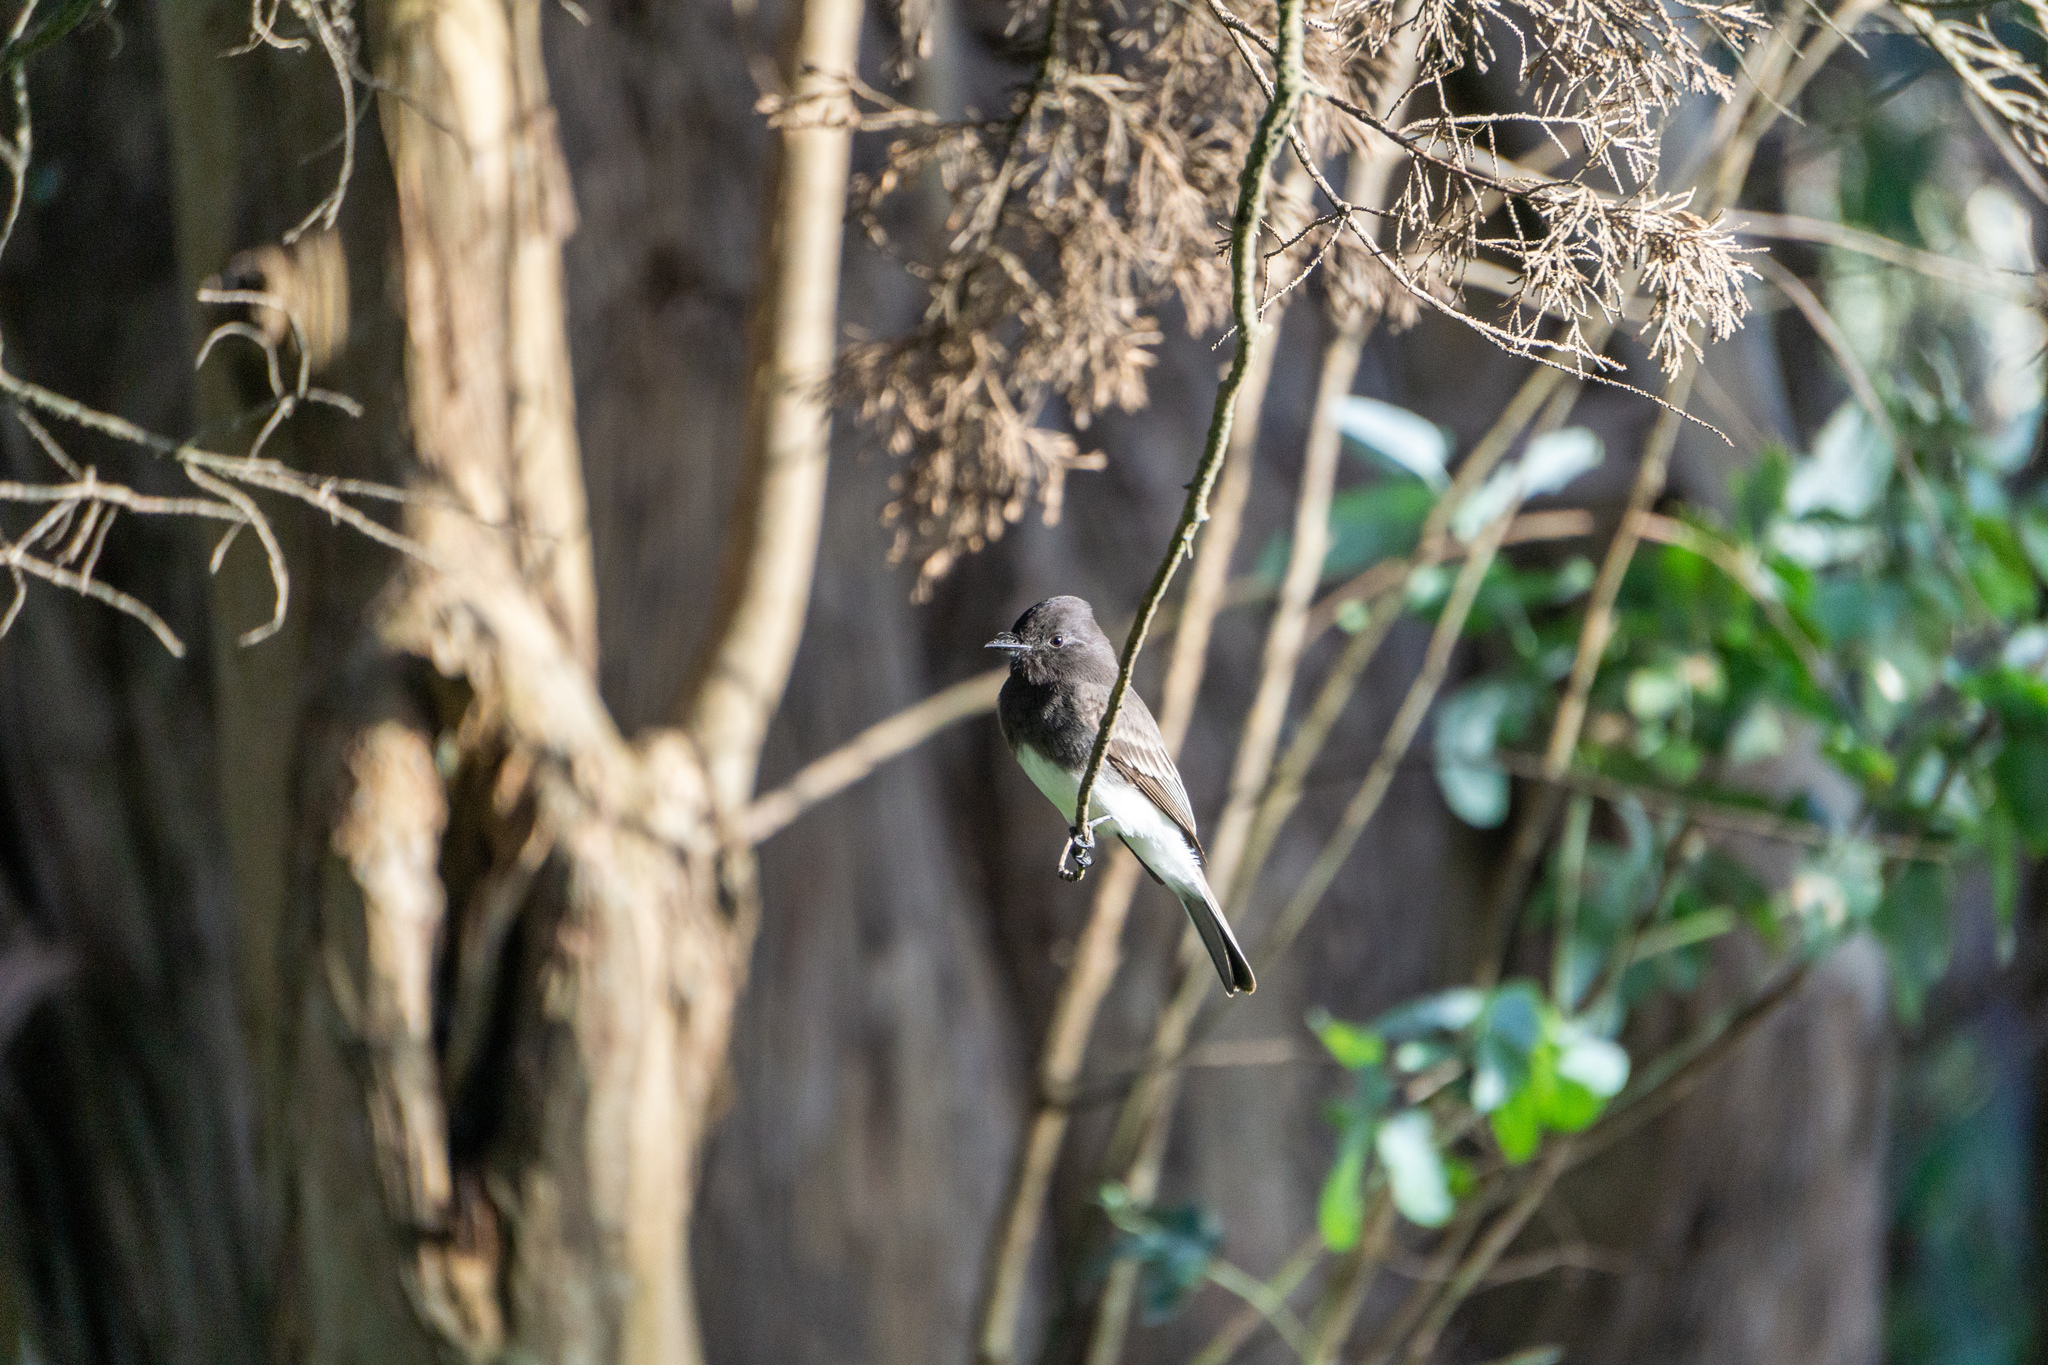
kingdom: Animalia
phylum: Chordata
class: Aves
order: Passeriformes
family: Tyrannidae
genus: Sayornis
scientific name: Sayornis nigricans
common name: Black phoebe
